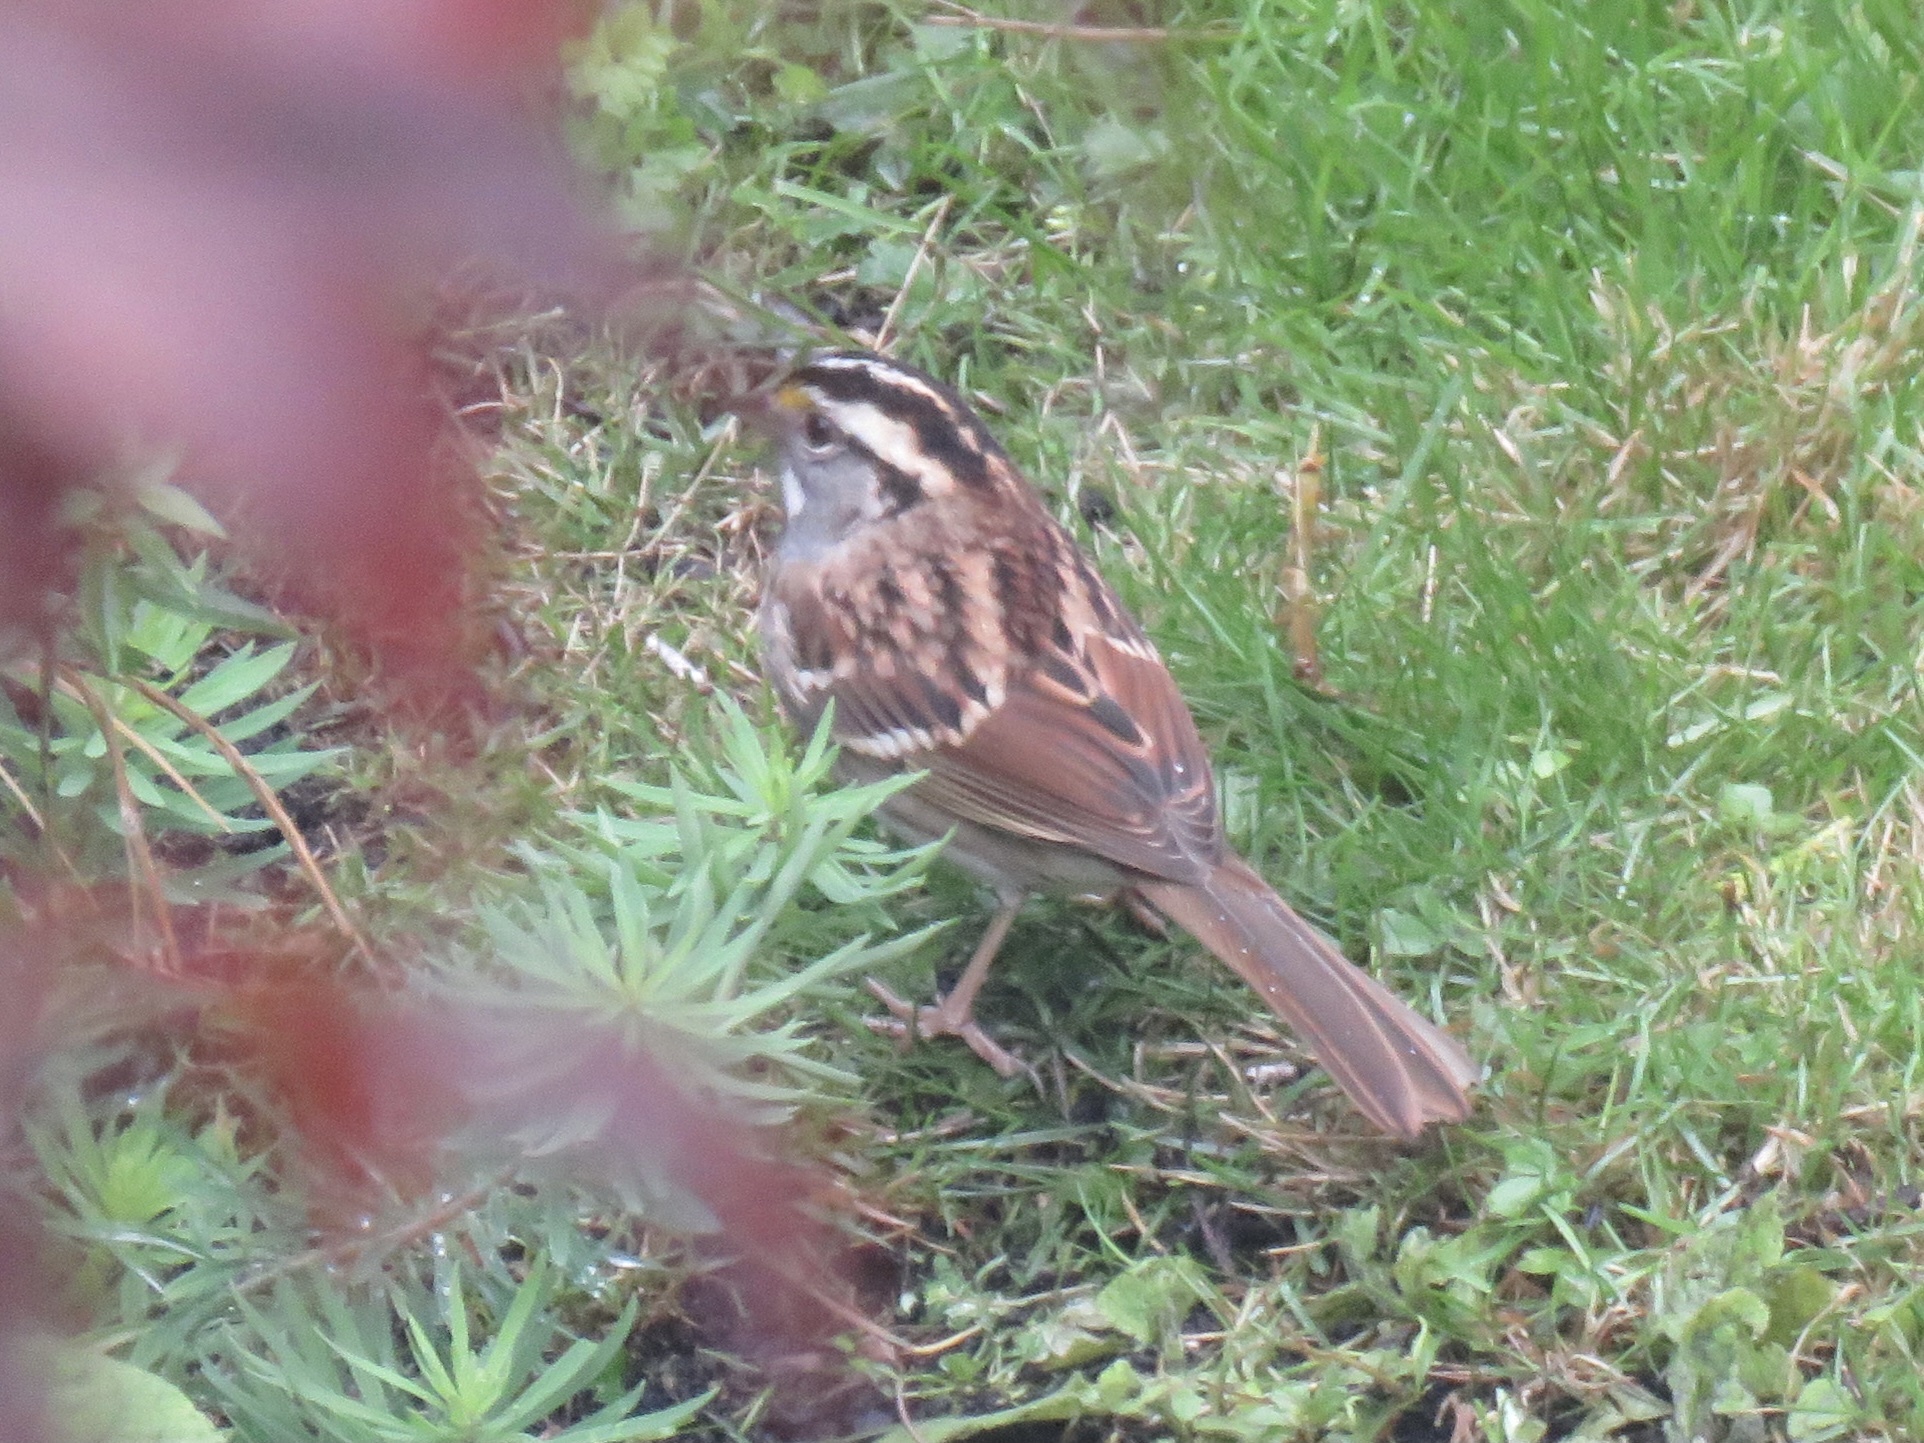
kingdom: Animalia
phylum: Chordata
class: Aves
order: Passeriformes
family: Passerellidae
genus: Zonotrichia
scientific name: Zonotrichia albicollis
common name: White-throated sparrow
